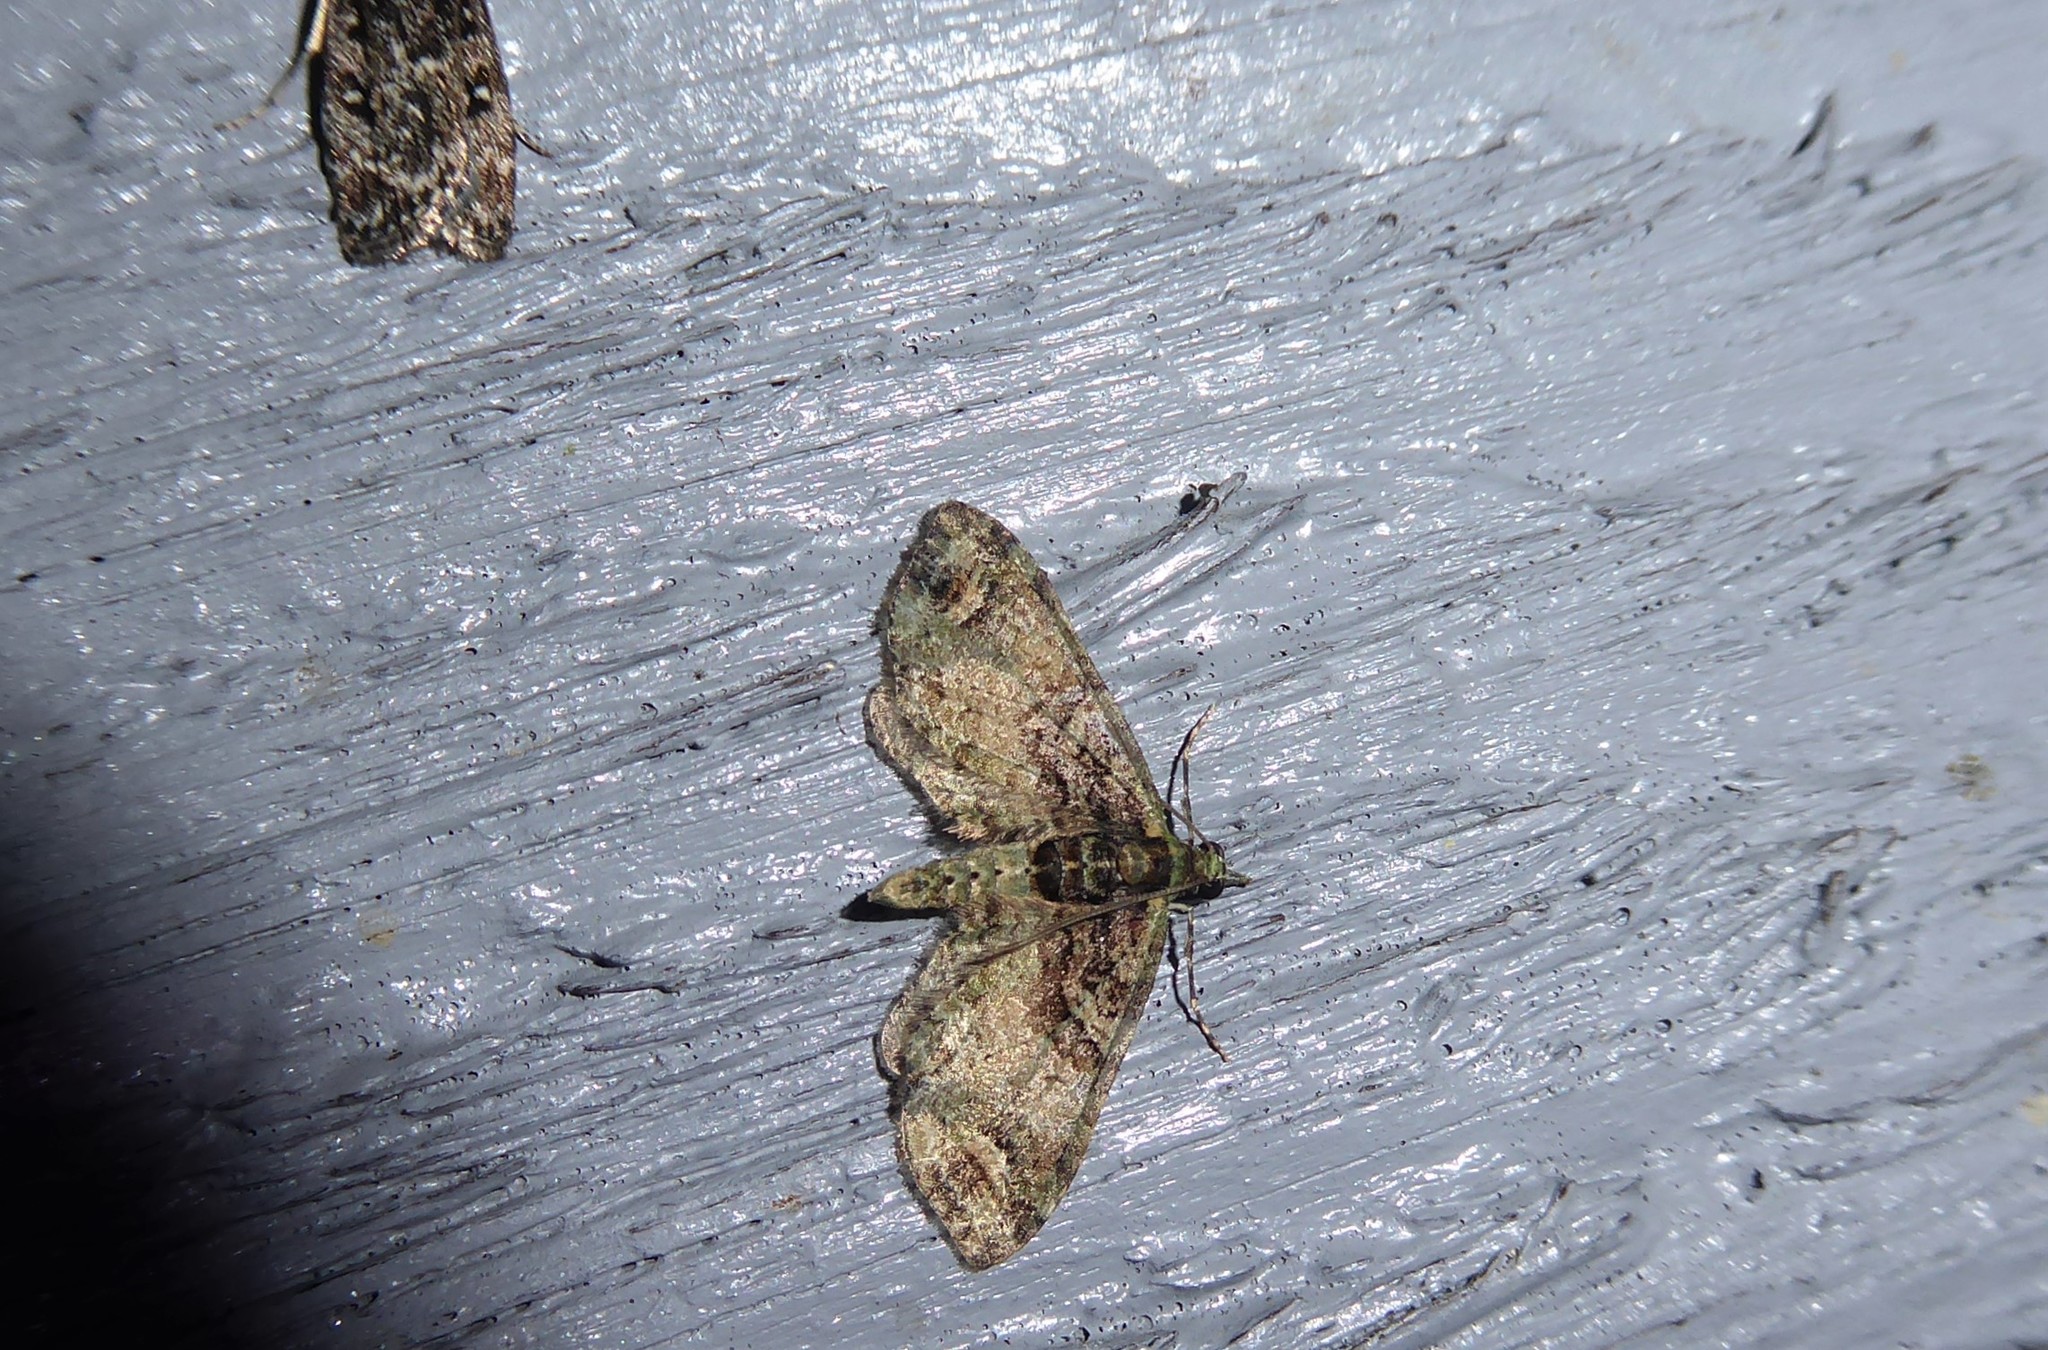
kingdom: Animalia
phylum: Arthropoda
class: Insecta
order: Lepidoptera
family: Geometridae
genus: Idaea
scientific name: Idaea mutanda
